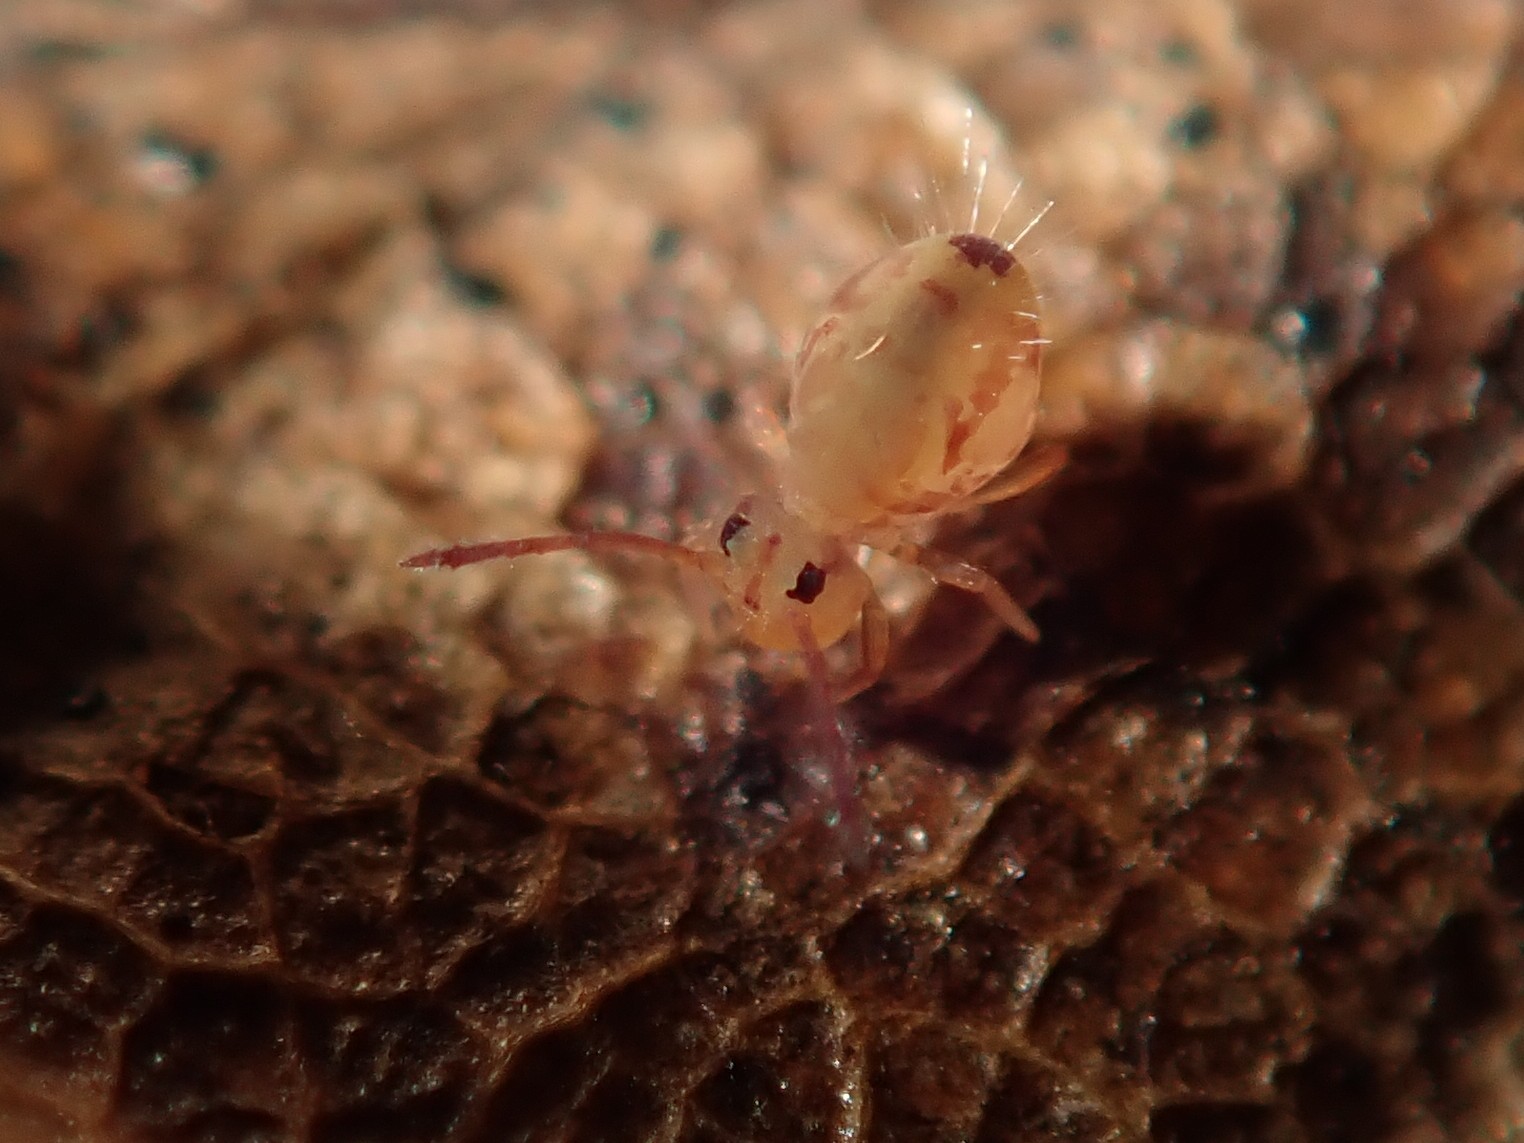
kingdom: Animalia
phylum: Arthropoda
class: Collembola
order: Symphypleona
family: Dicyrtomidae
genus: Dicyrtomina
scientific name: Dicyrtomina ornata
